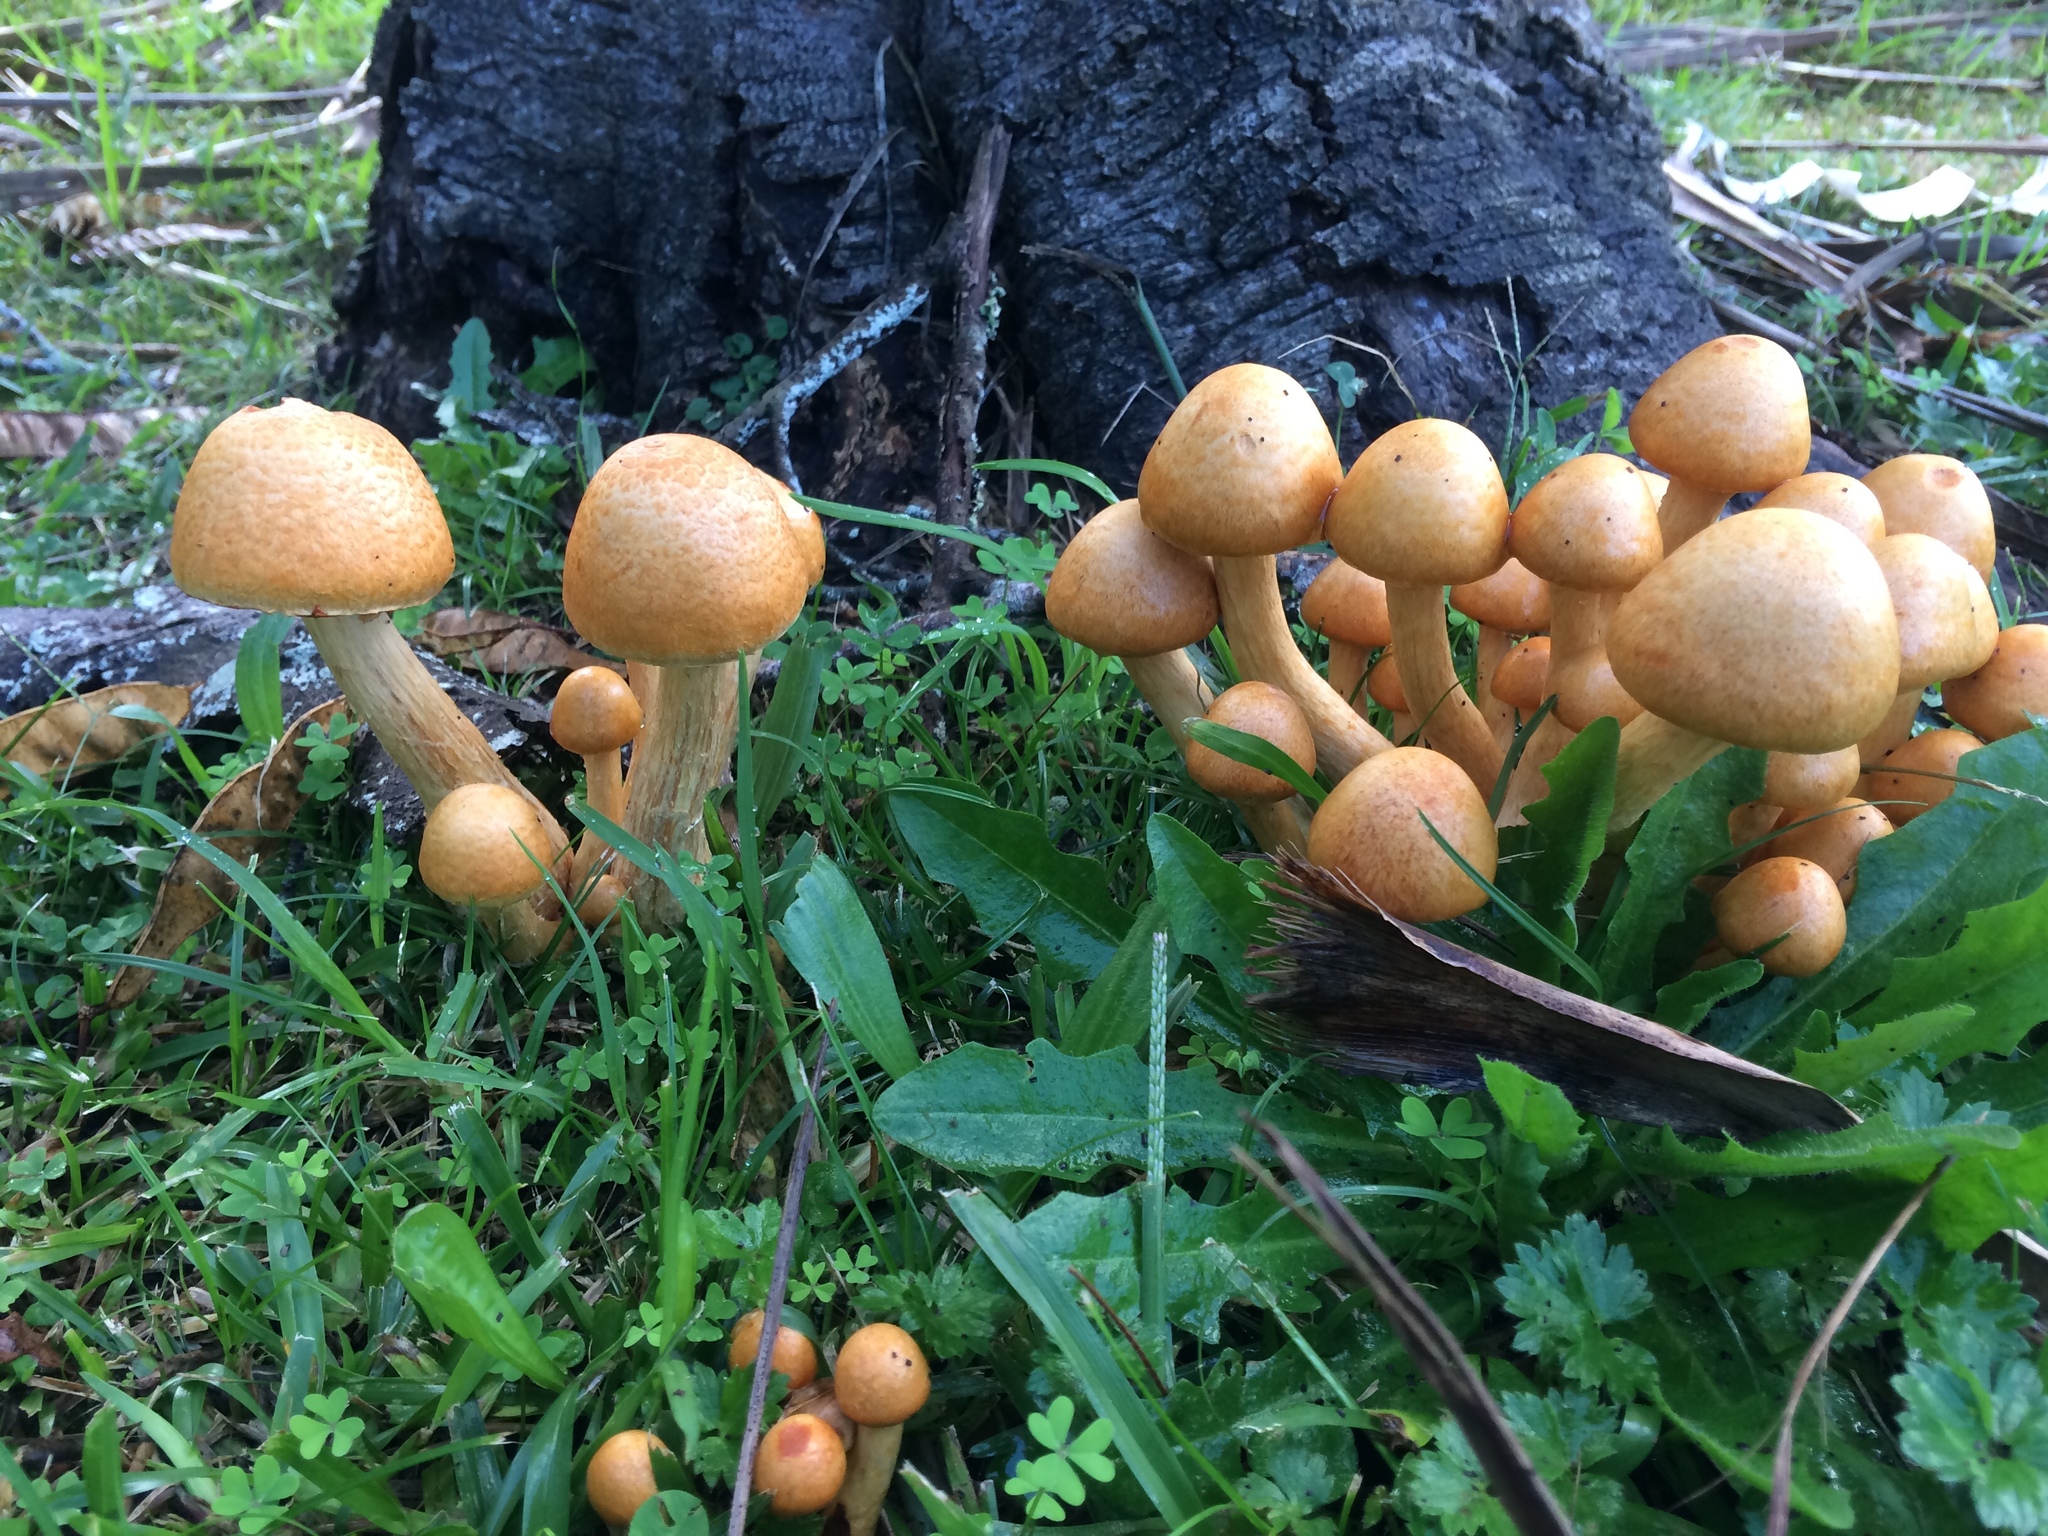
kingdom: Fungi
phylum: Basidiomycota
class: Agaricomycetes
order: Agaricales
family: Hymenogastraceae
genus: Gymnopilus
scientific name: Gymnopilus junonius
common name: Spectacular rustgill
